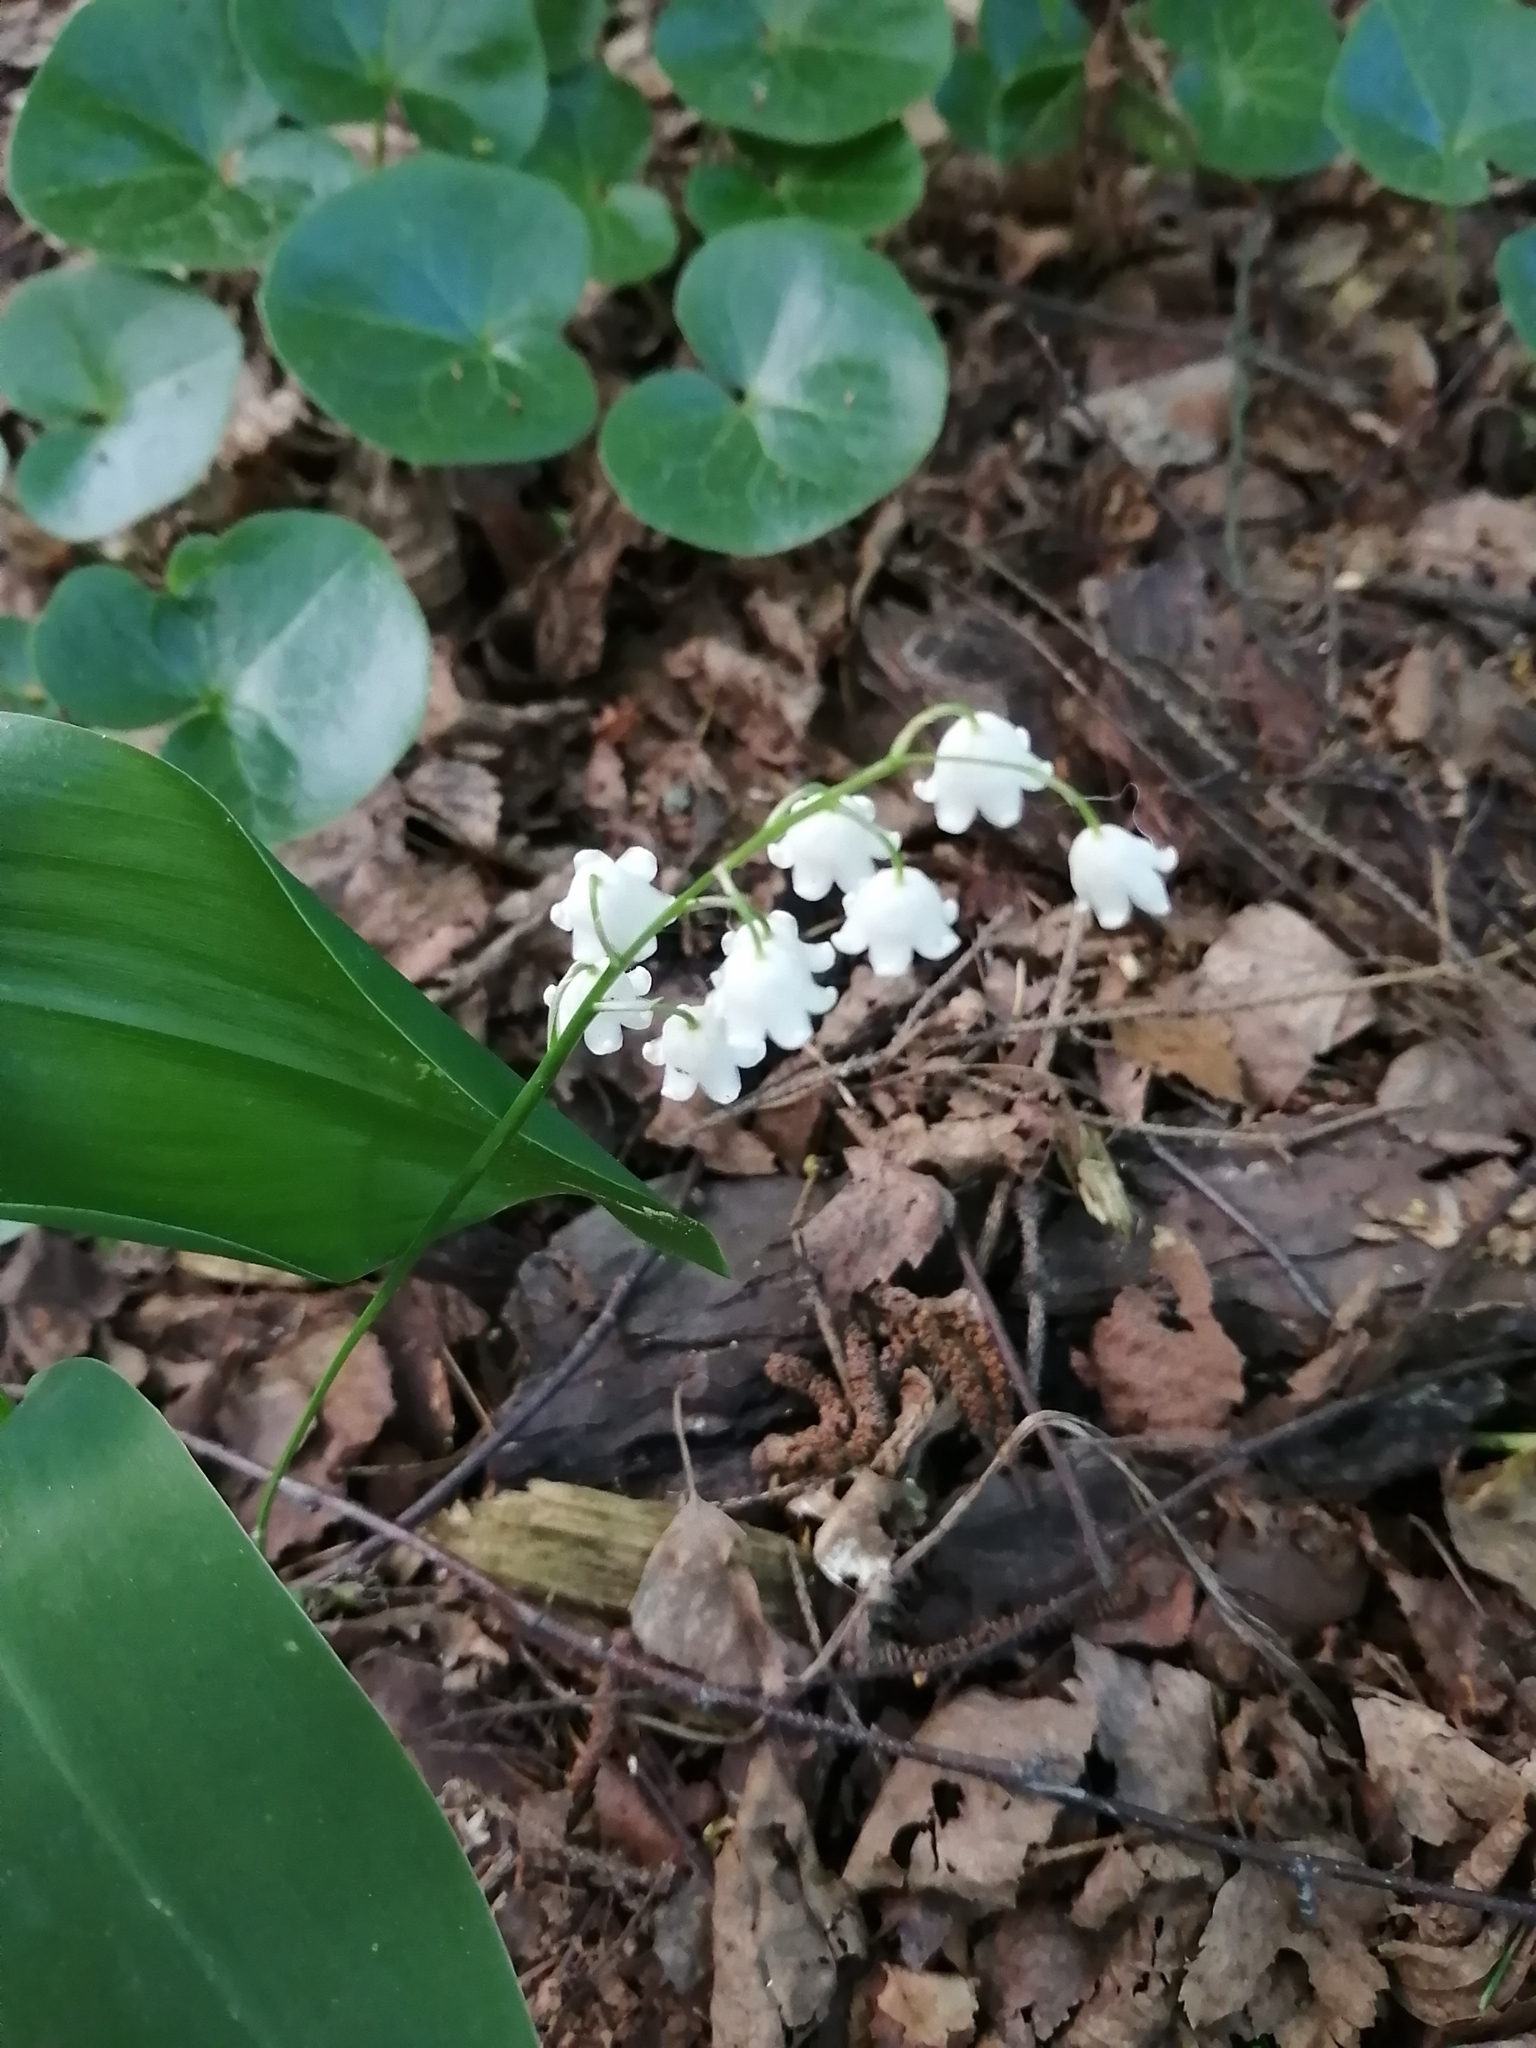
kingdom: Plantae
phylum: Tracheophyta
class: Liliopsida
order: Asparagales
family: Asparagaceae
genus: Convallaria
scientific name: Convallaria majalis
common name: Lily-of-the-valley
